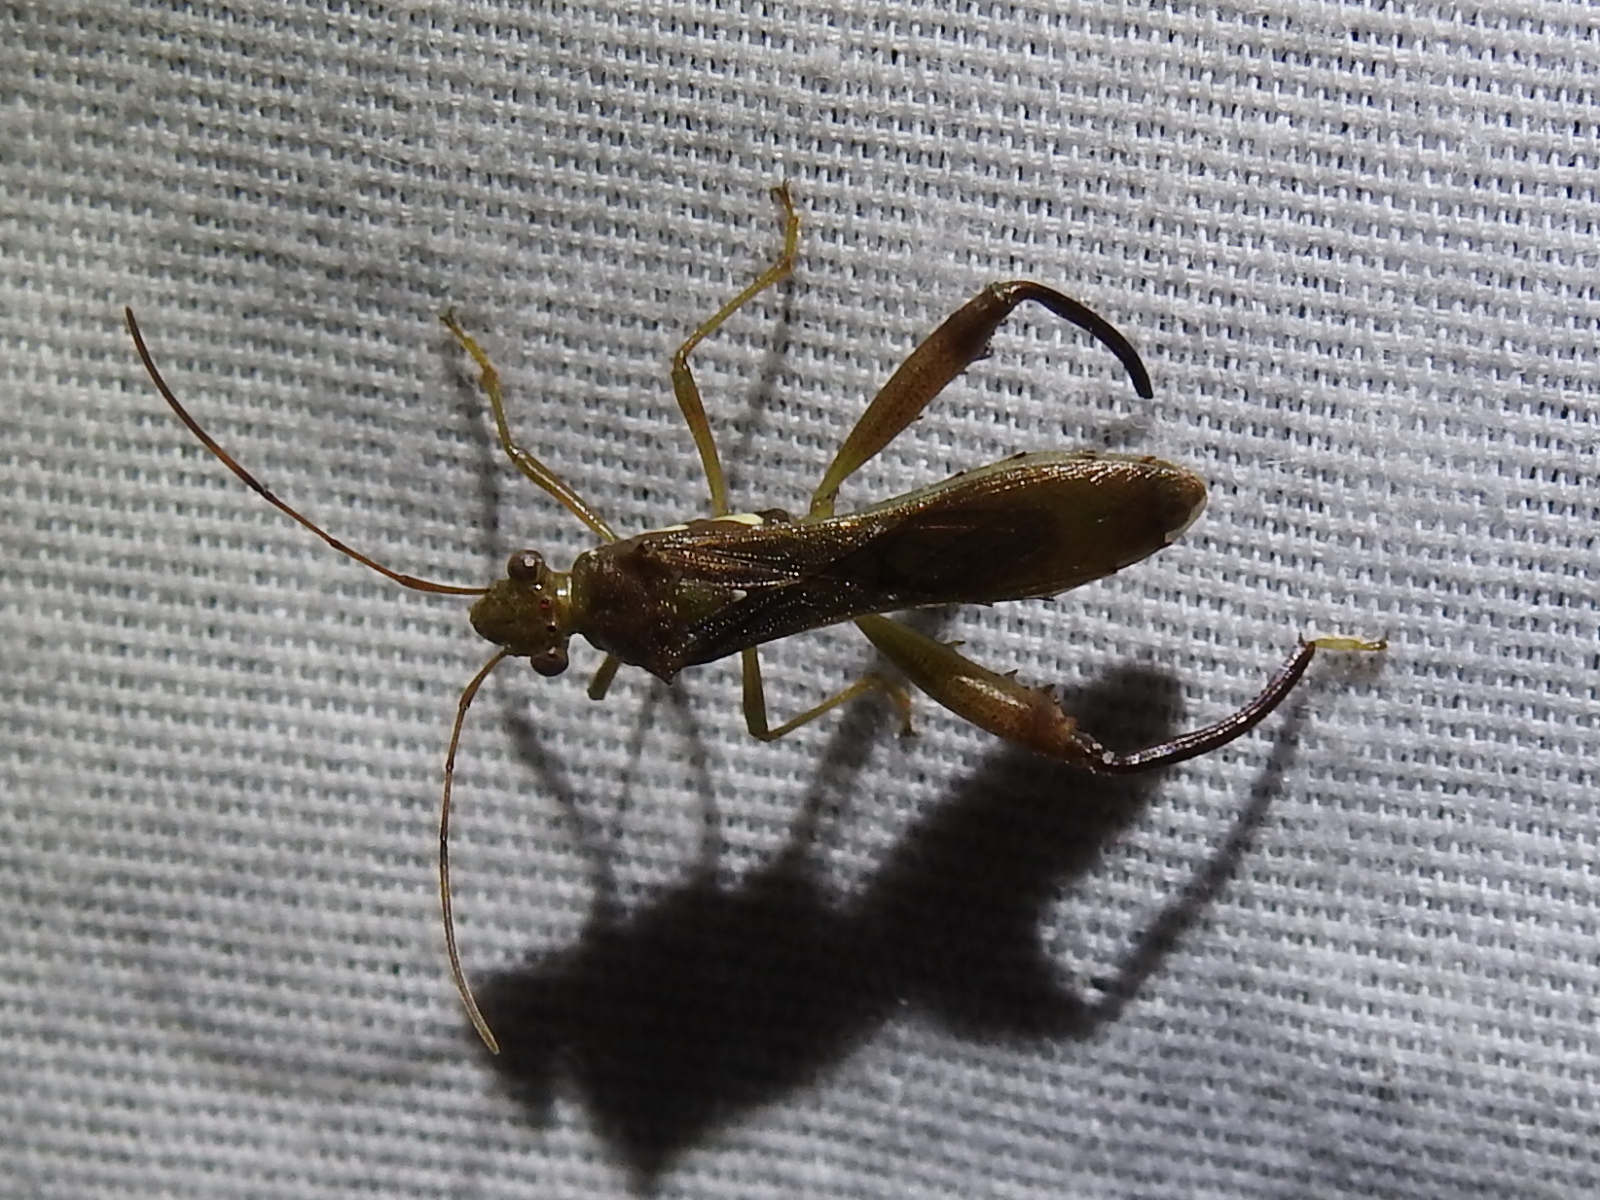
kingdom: Animalia
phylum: Arthropoda
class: Insecta
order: Hemiptera
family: Alydidae
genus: Hyalymenus
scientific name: Hyalymenus tarsatus
